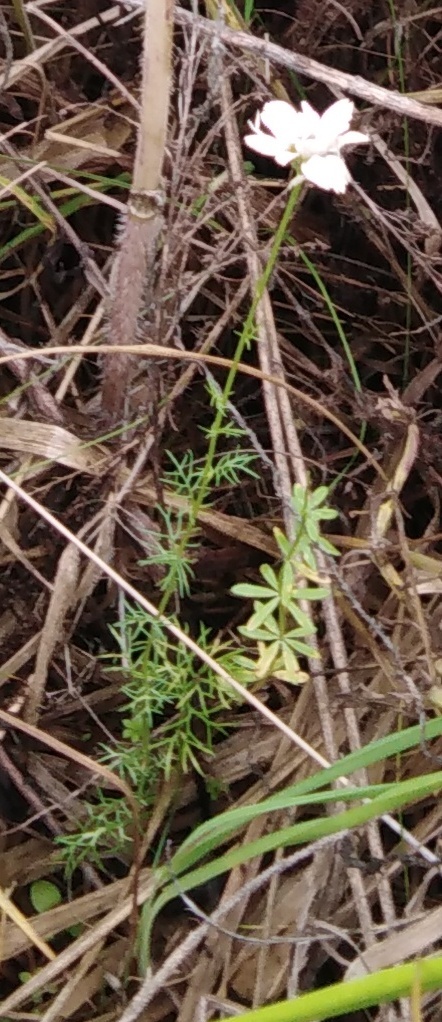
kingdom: Plantae
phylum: Tracheophyta
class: Magnoliopsida
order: Asterales
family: Asteraceae
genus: Tripleurospermum
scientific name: Tripleurospermum inodorum
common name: Scentless mayweed
